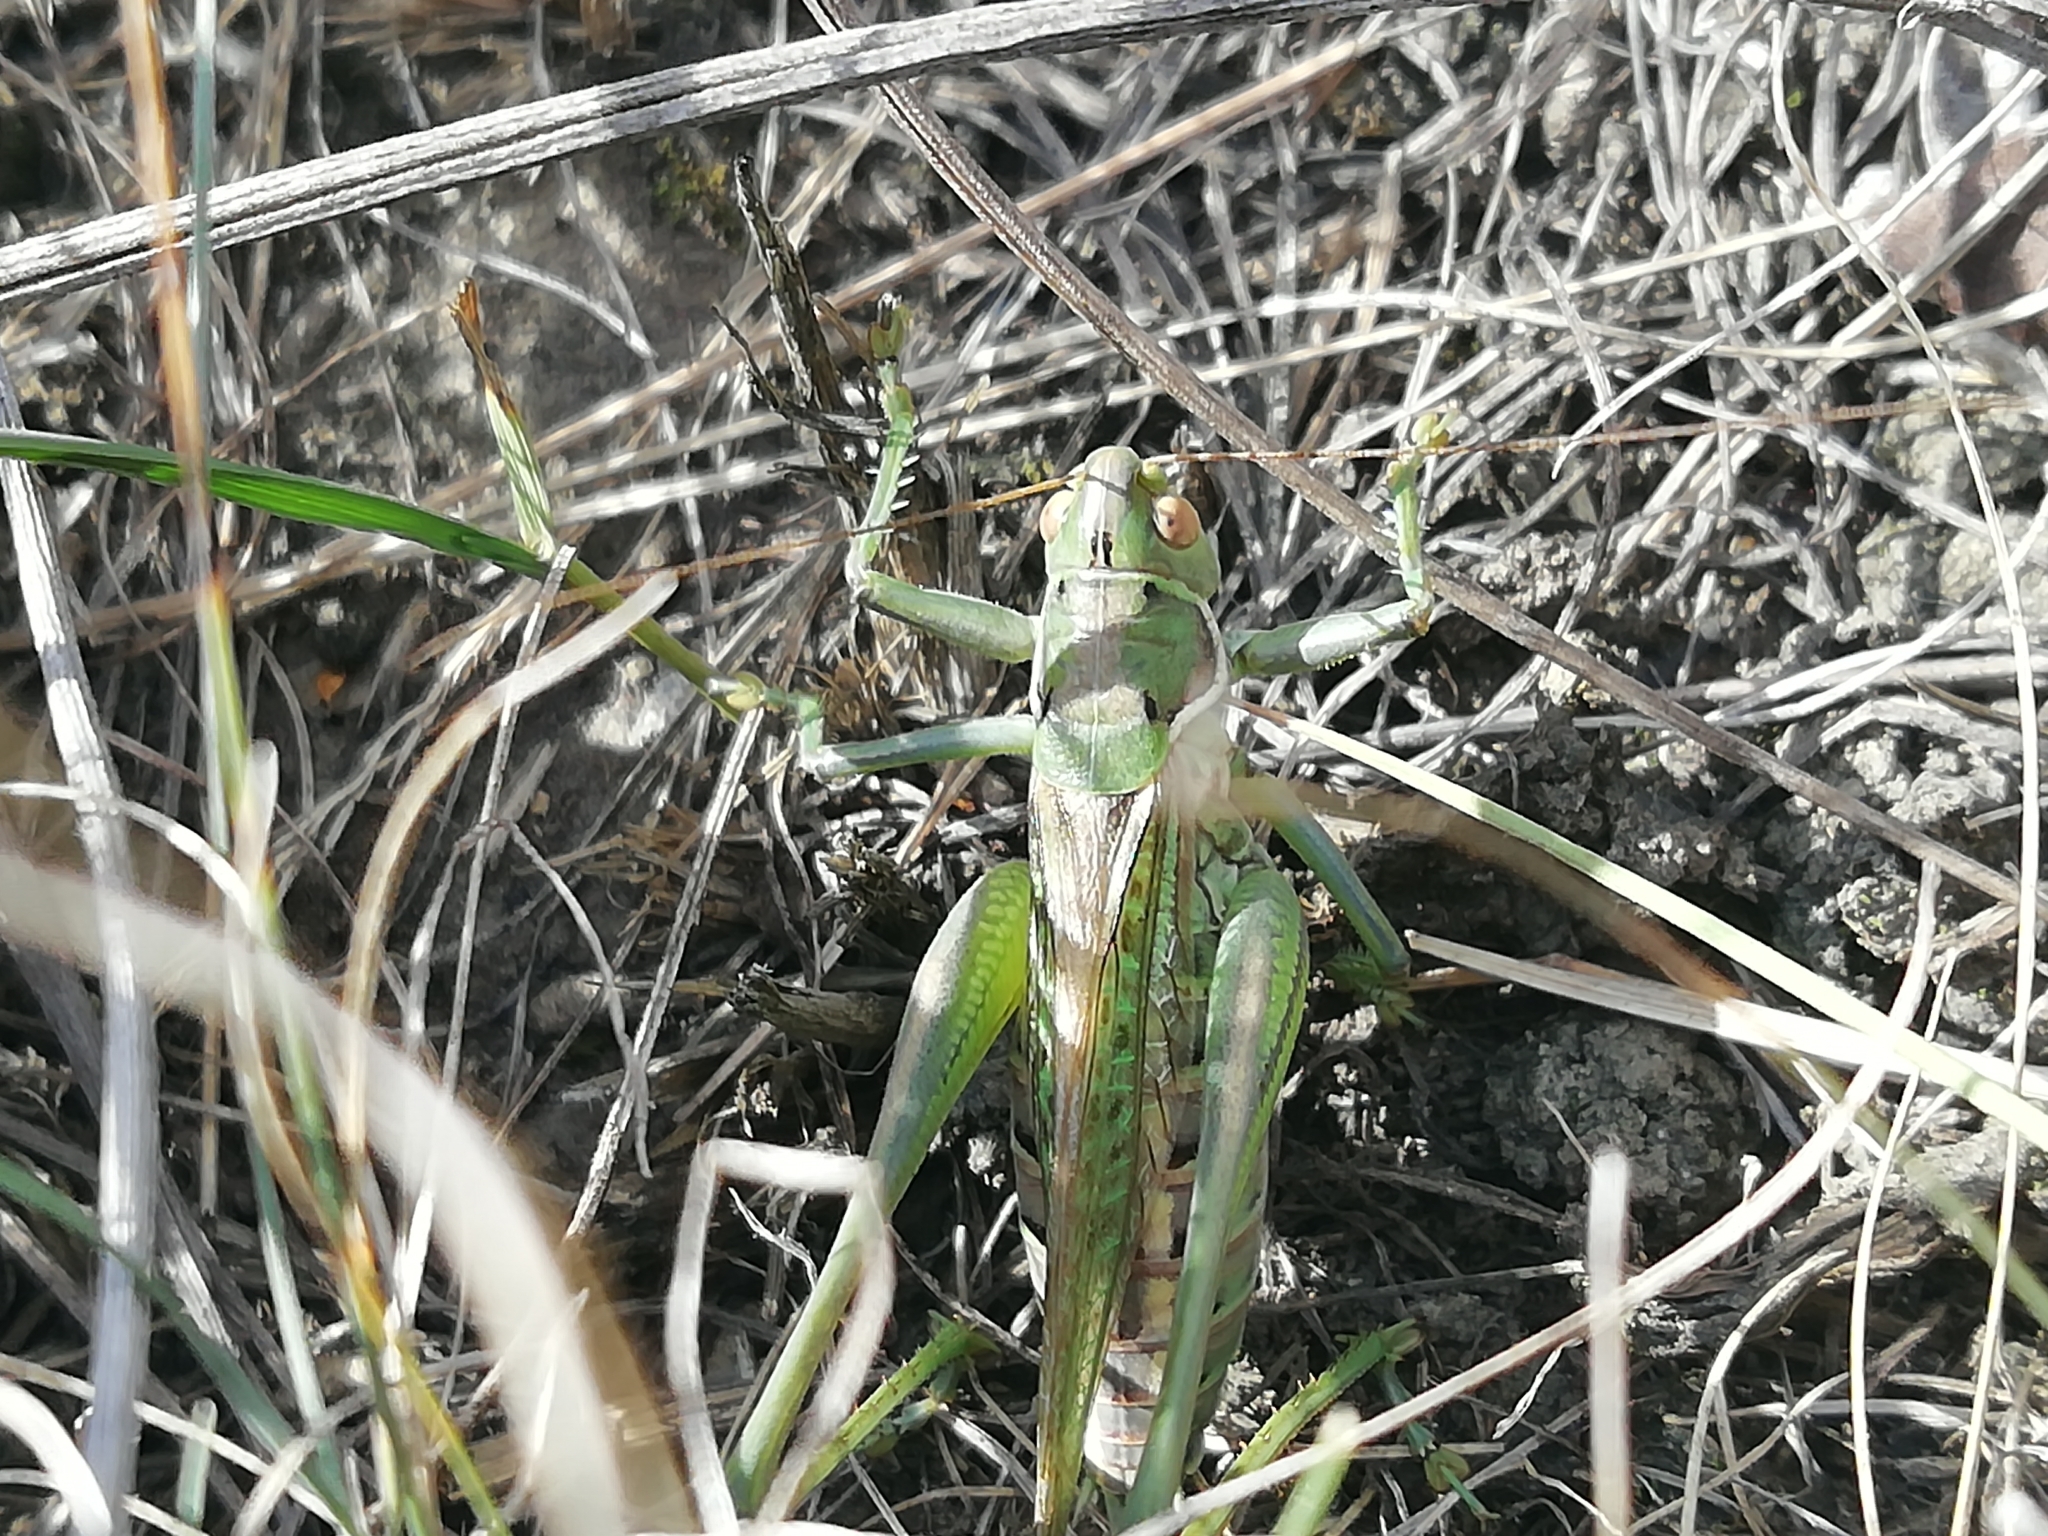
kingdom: Animalia
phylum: Arthropoda
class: Insecta
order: Orthoptera
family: Tettigoniidae
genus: Gampsocleis
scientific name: Gampsocleis glabra
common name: Heath bushcricket
